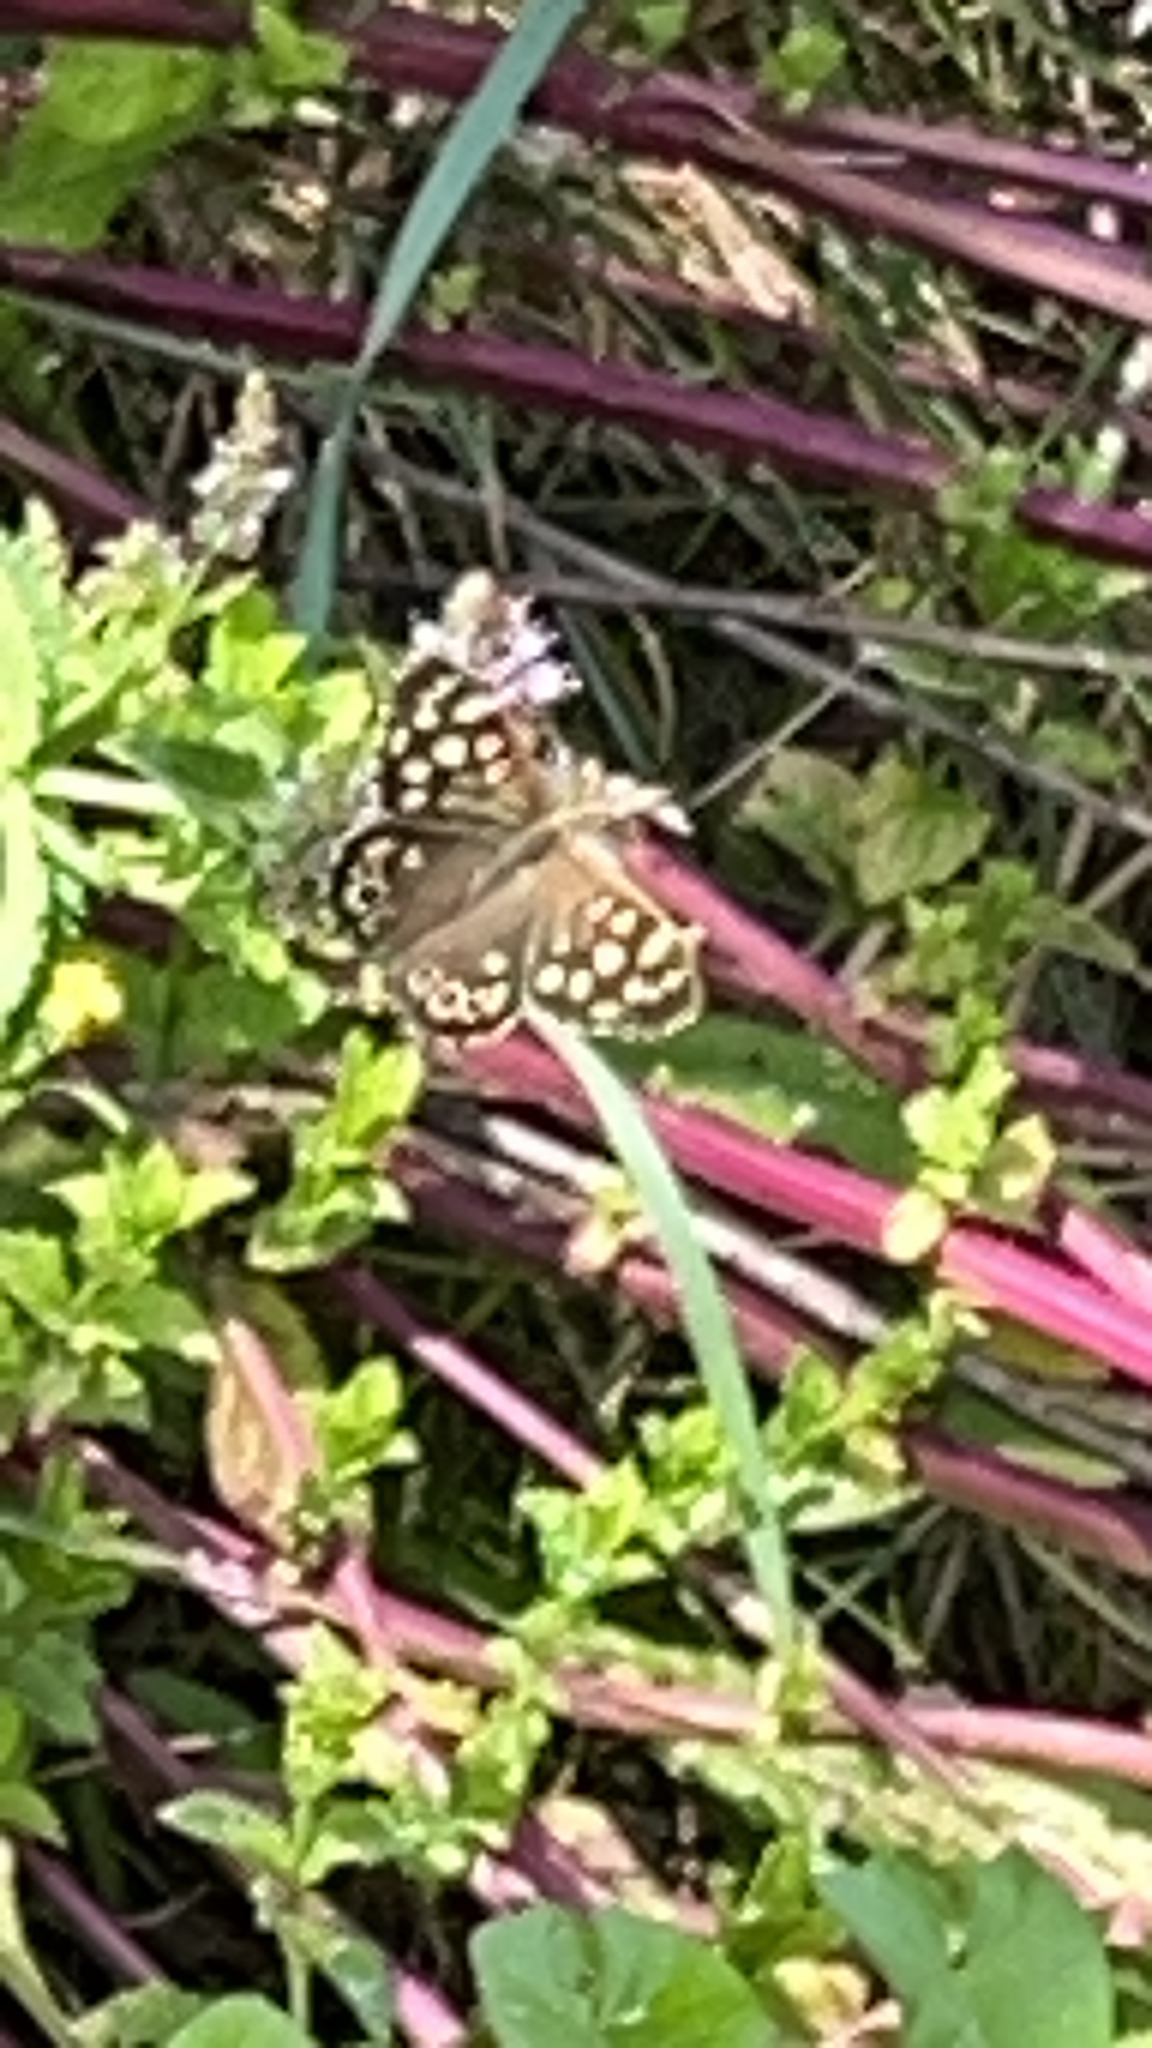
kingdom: Animalia
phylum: Arthropoda
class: Insecta
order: Lepidoptera
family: Nymphalidae
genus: Pararge
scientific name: Pararge aegeria
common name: Speckled wood
